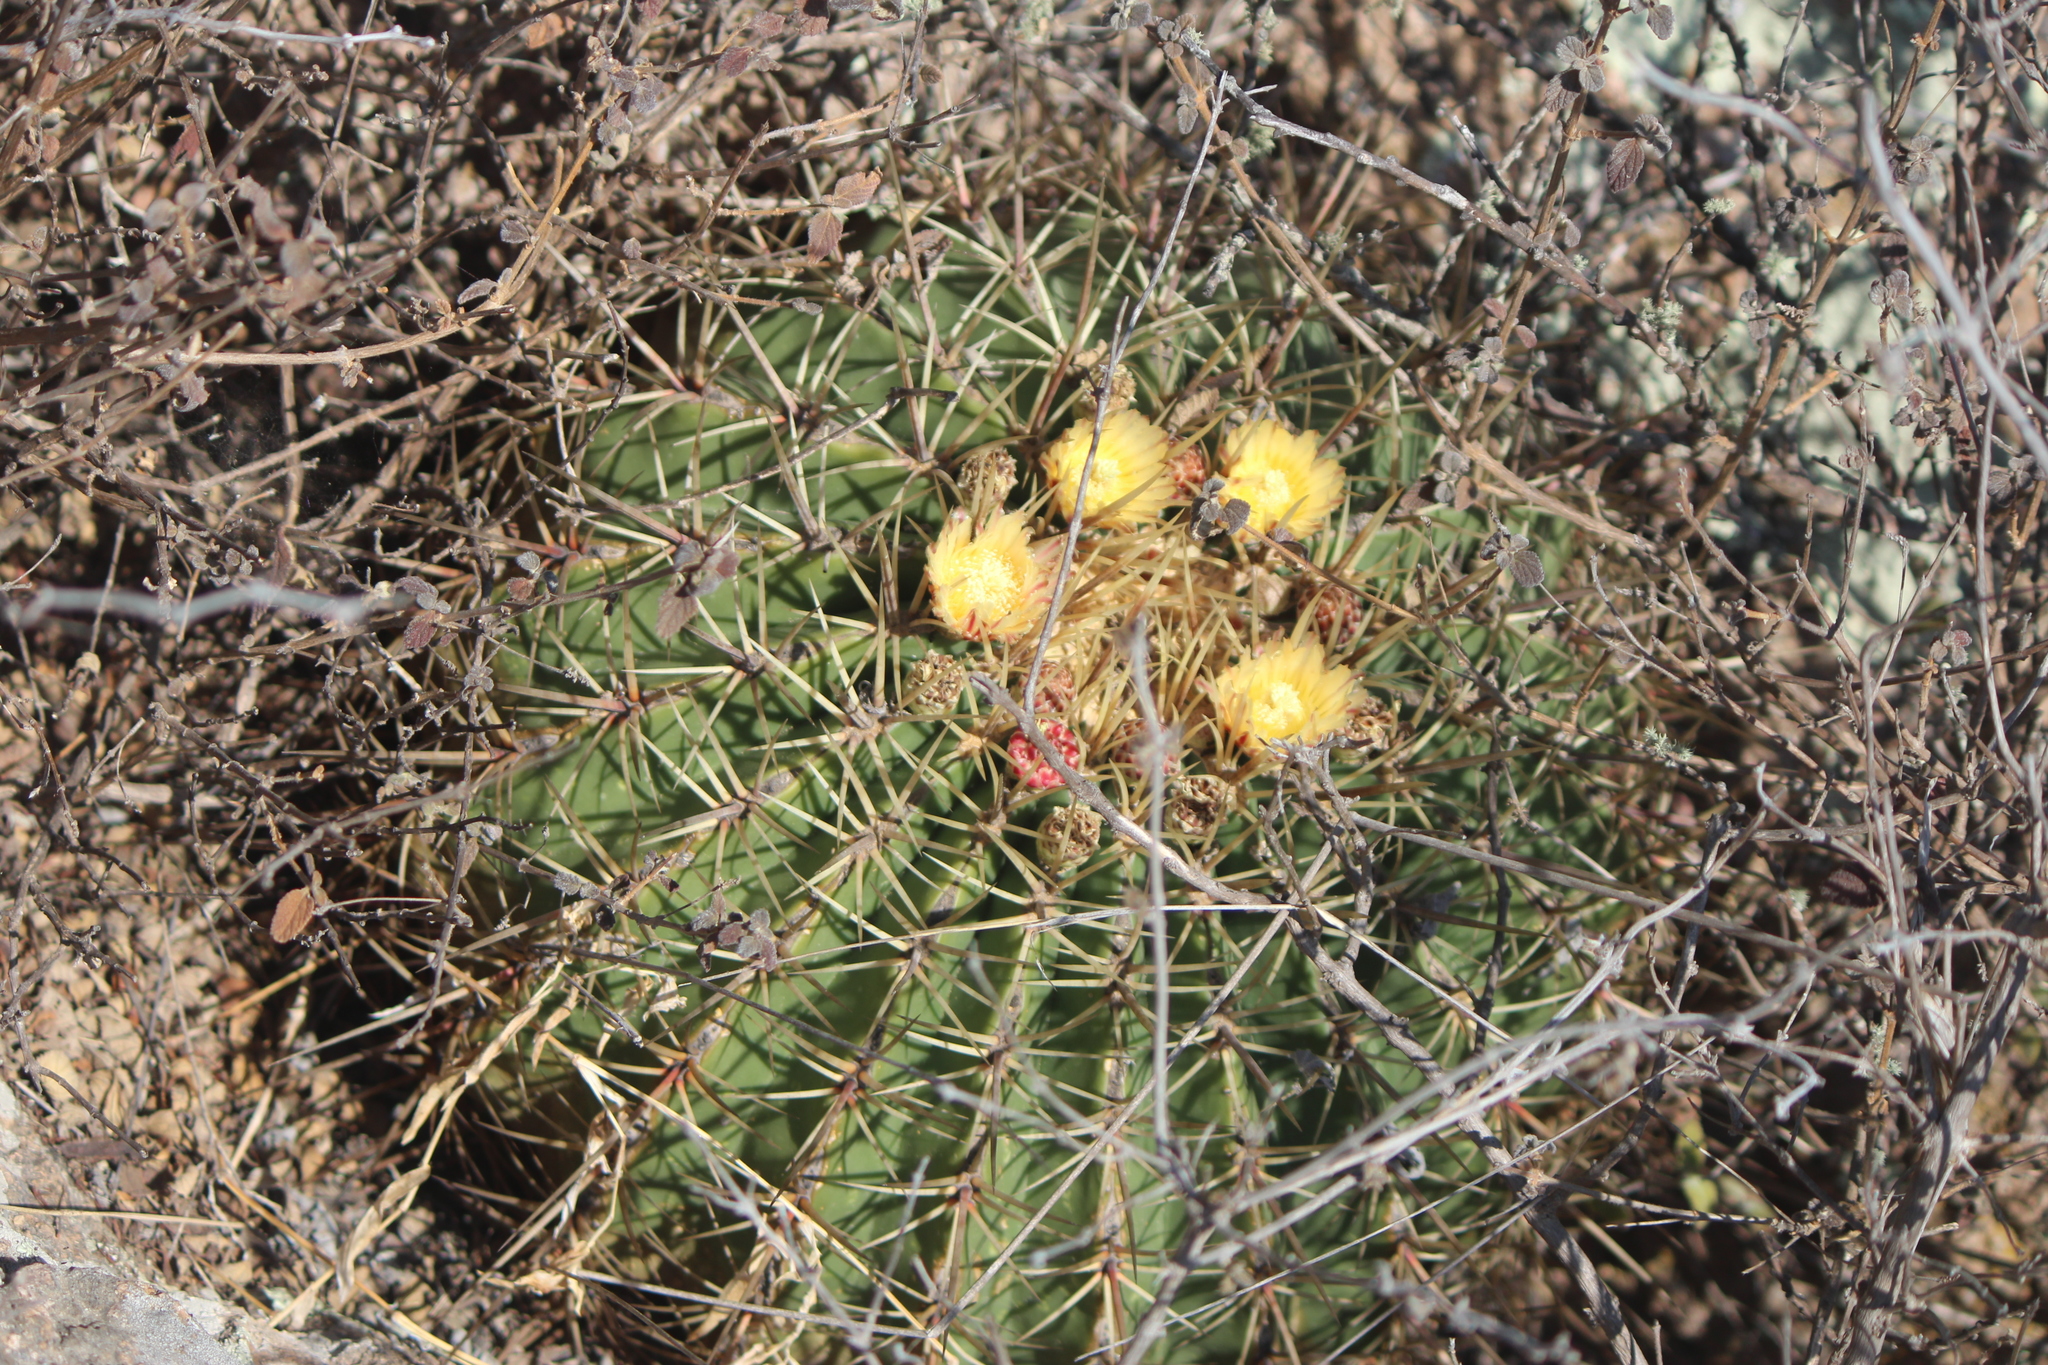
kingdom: Plantae
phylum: Tracheophyta
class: Magnoliopsida
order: Caryophyllales
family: Cactaceae
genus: Bisnaga
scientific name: Bisnaga histrix
